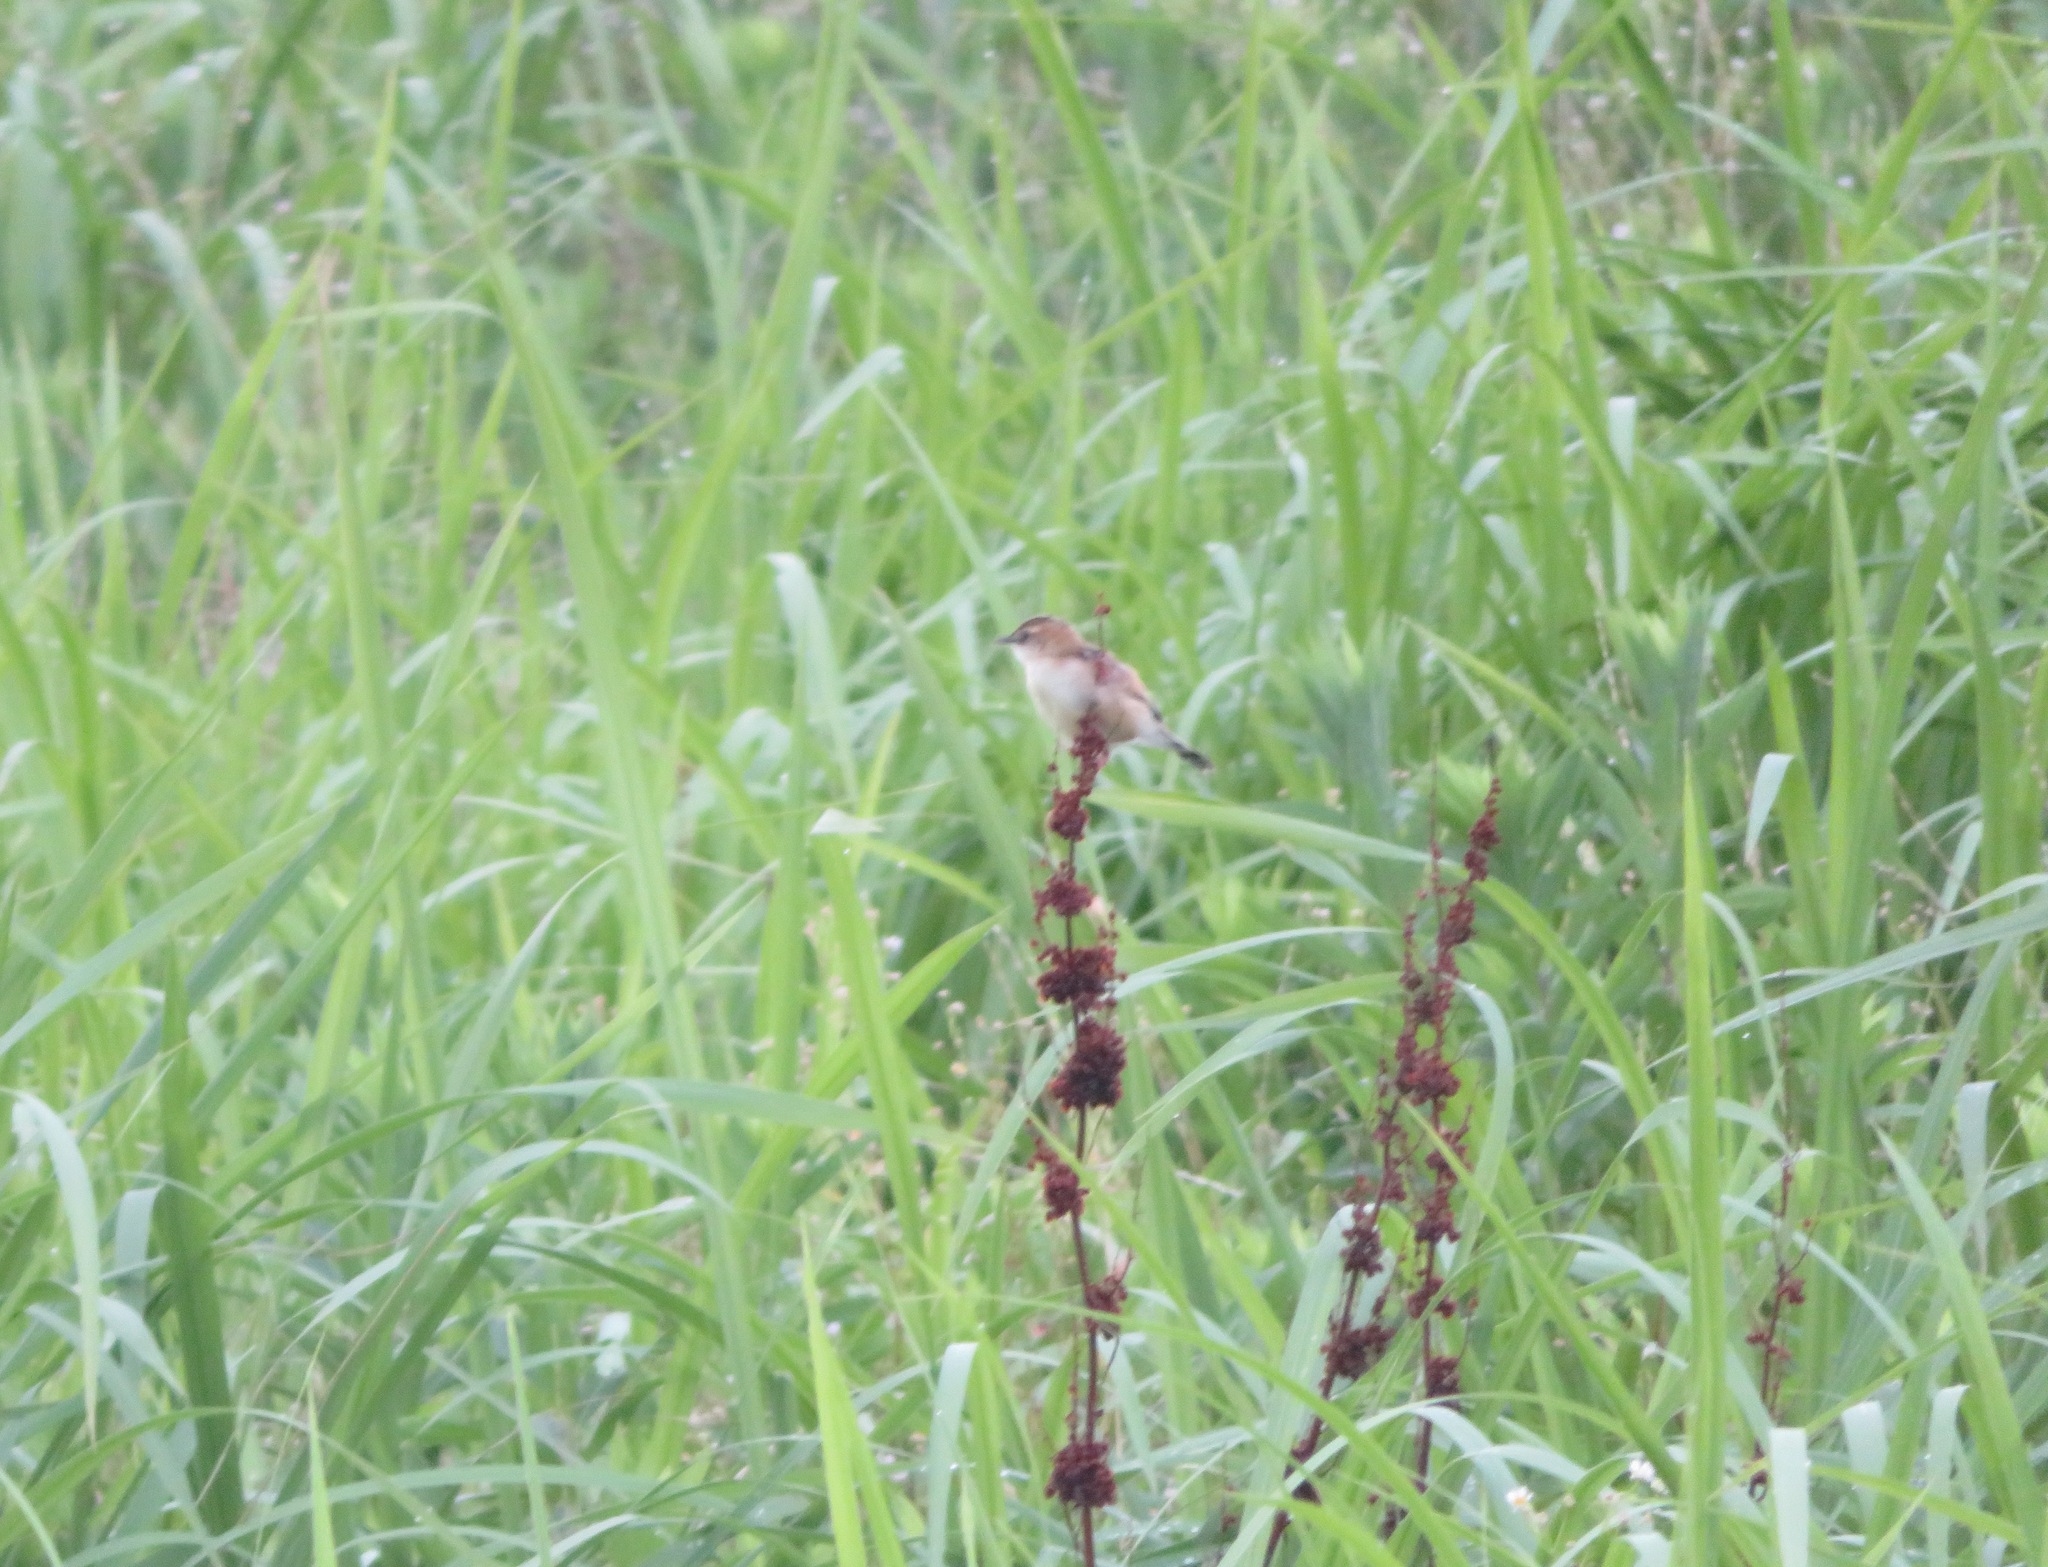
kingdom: Animalia
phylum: Chordata
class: Aves
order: Passeriformes
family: Cisticolidae
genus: Cisticola
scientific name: Cisticola juncidis
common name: Zitting cisticola
